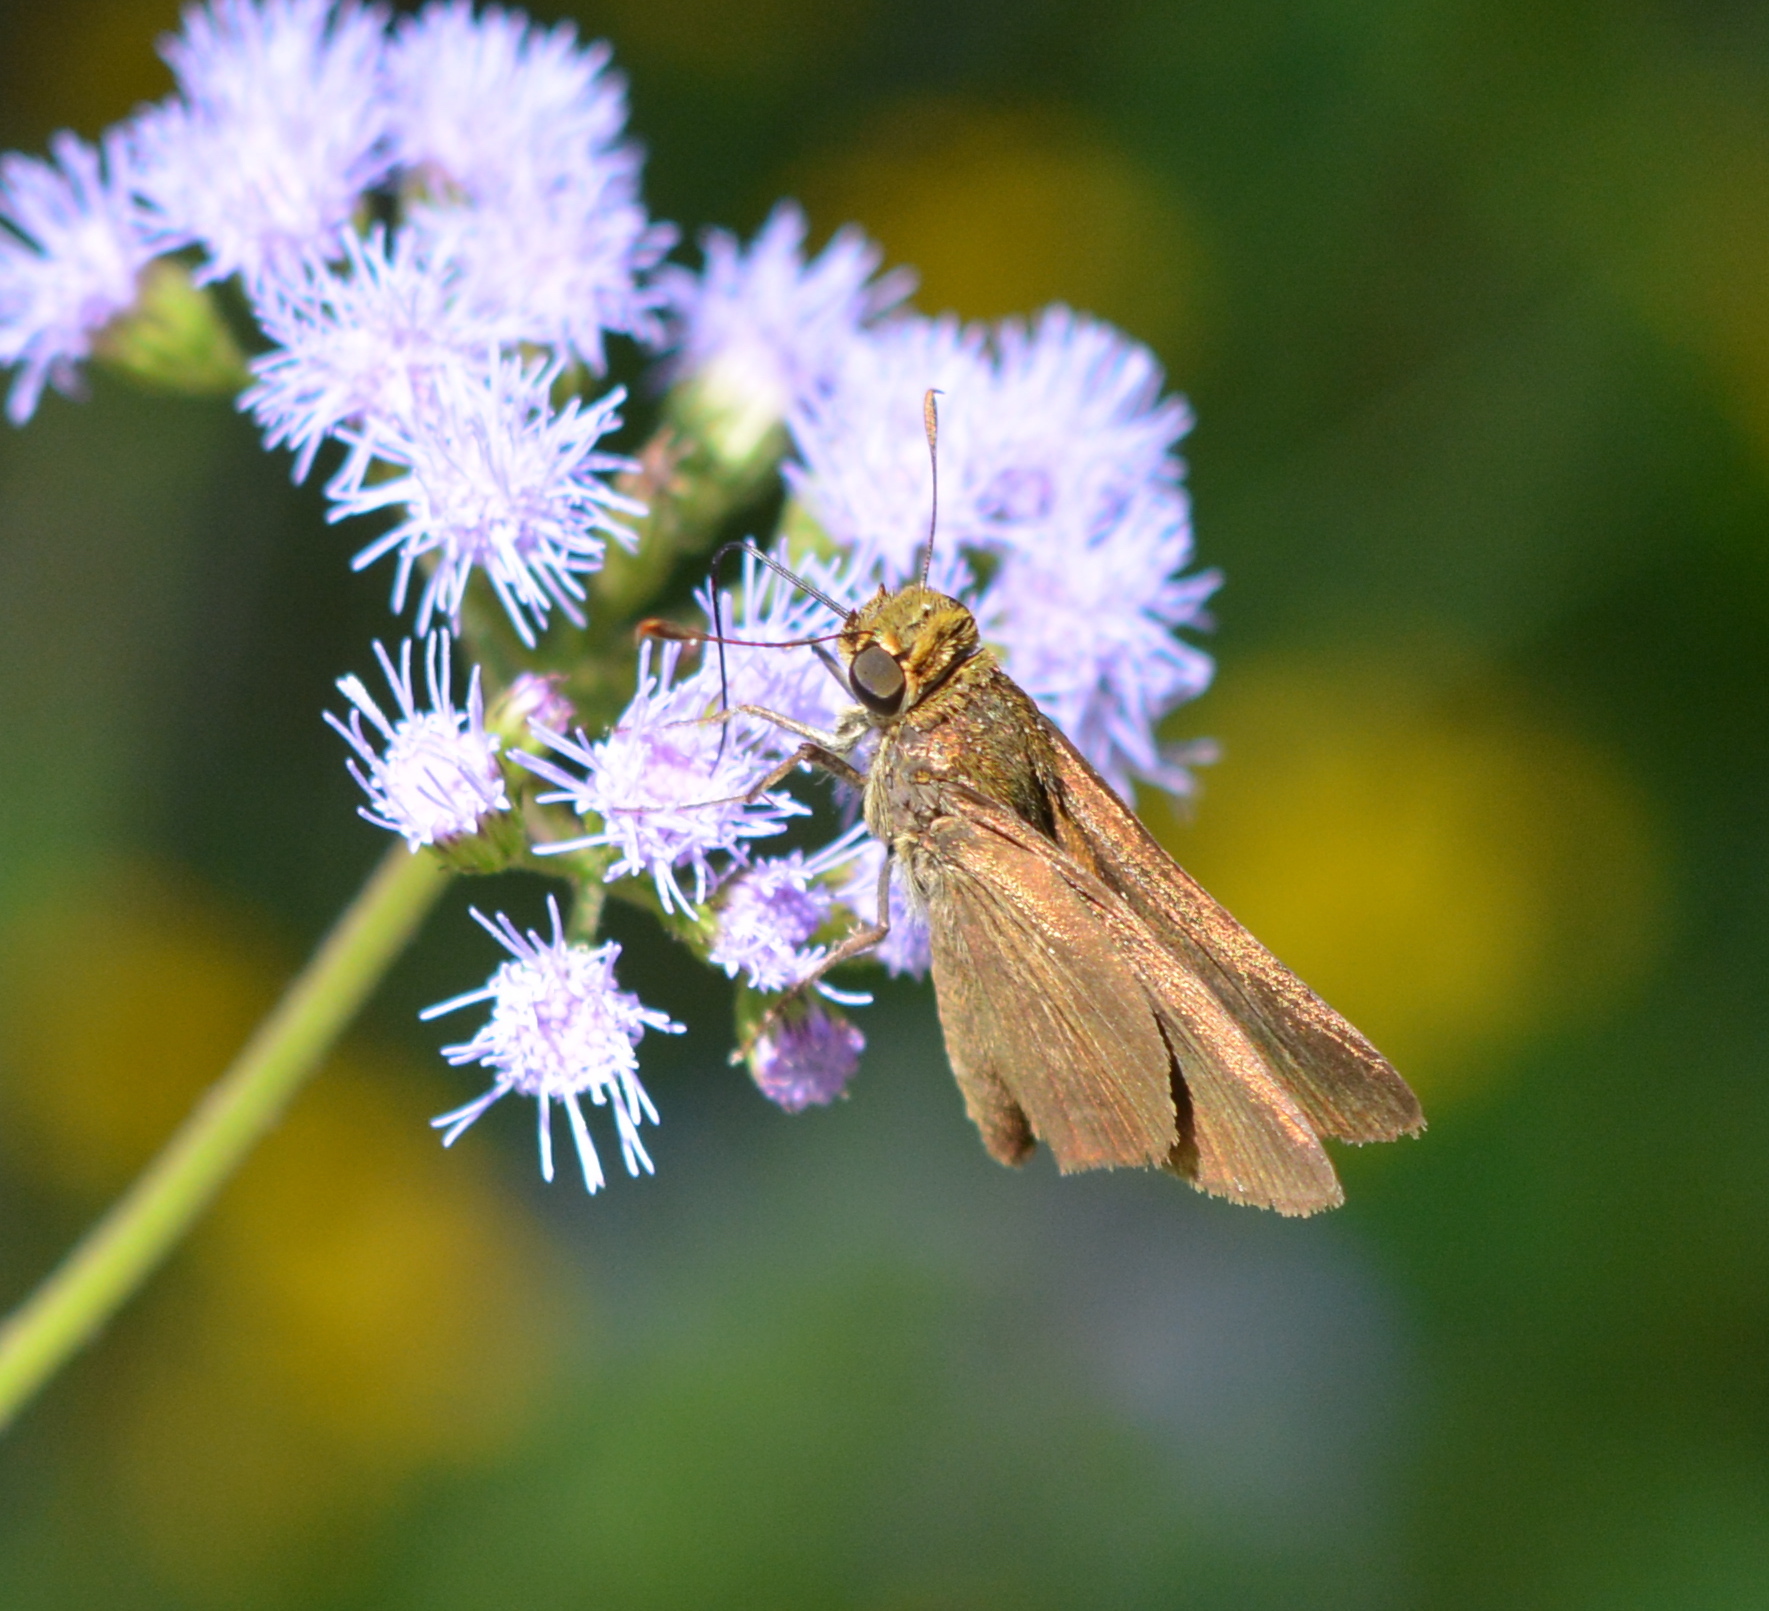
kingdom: Animalia
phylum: Arthropoda
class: Insecta
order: Lepidoptera
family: Hesperiidae
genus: Euphyes
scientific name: Euphyes vestris
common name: Dun skipper
